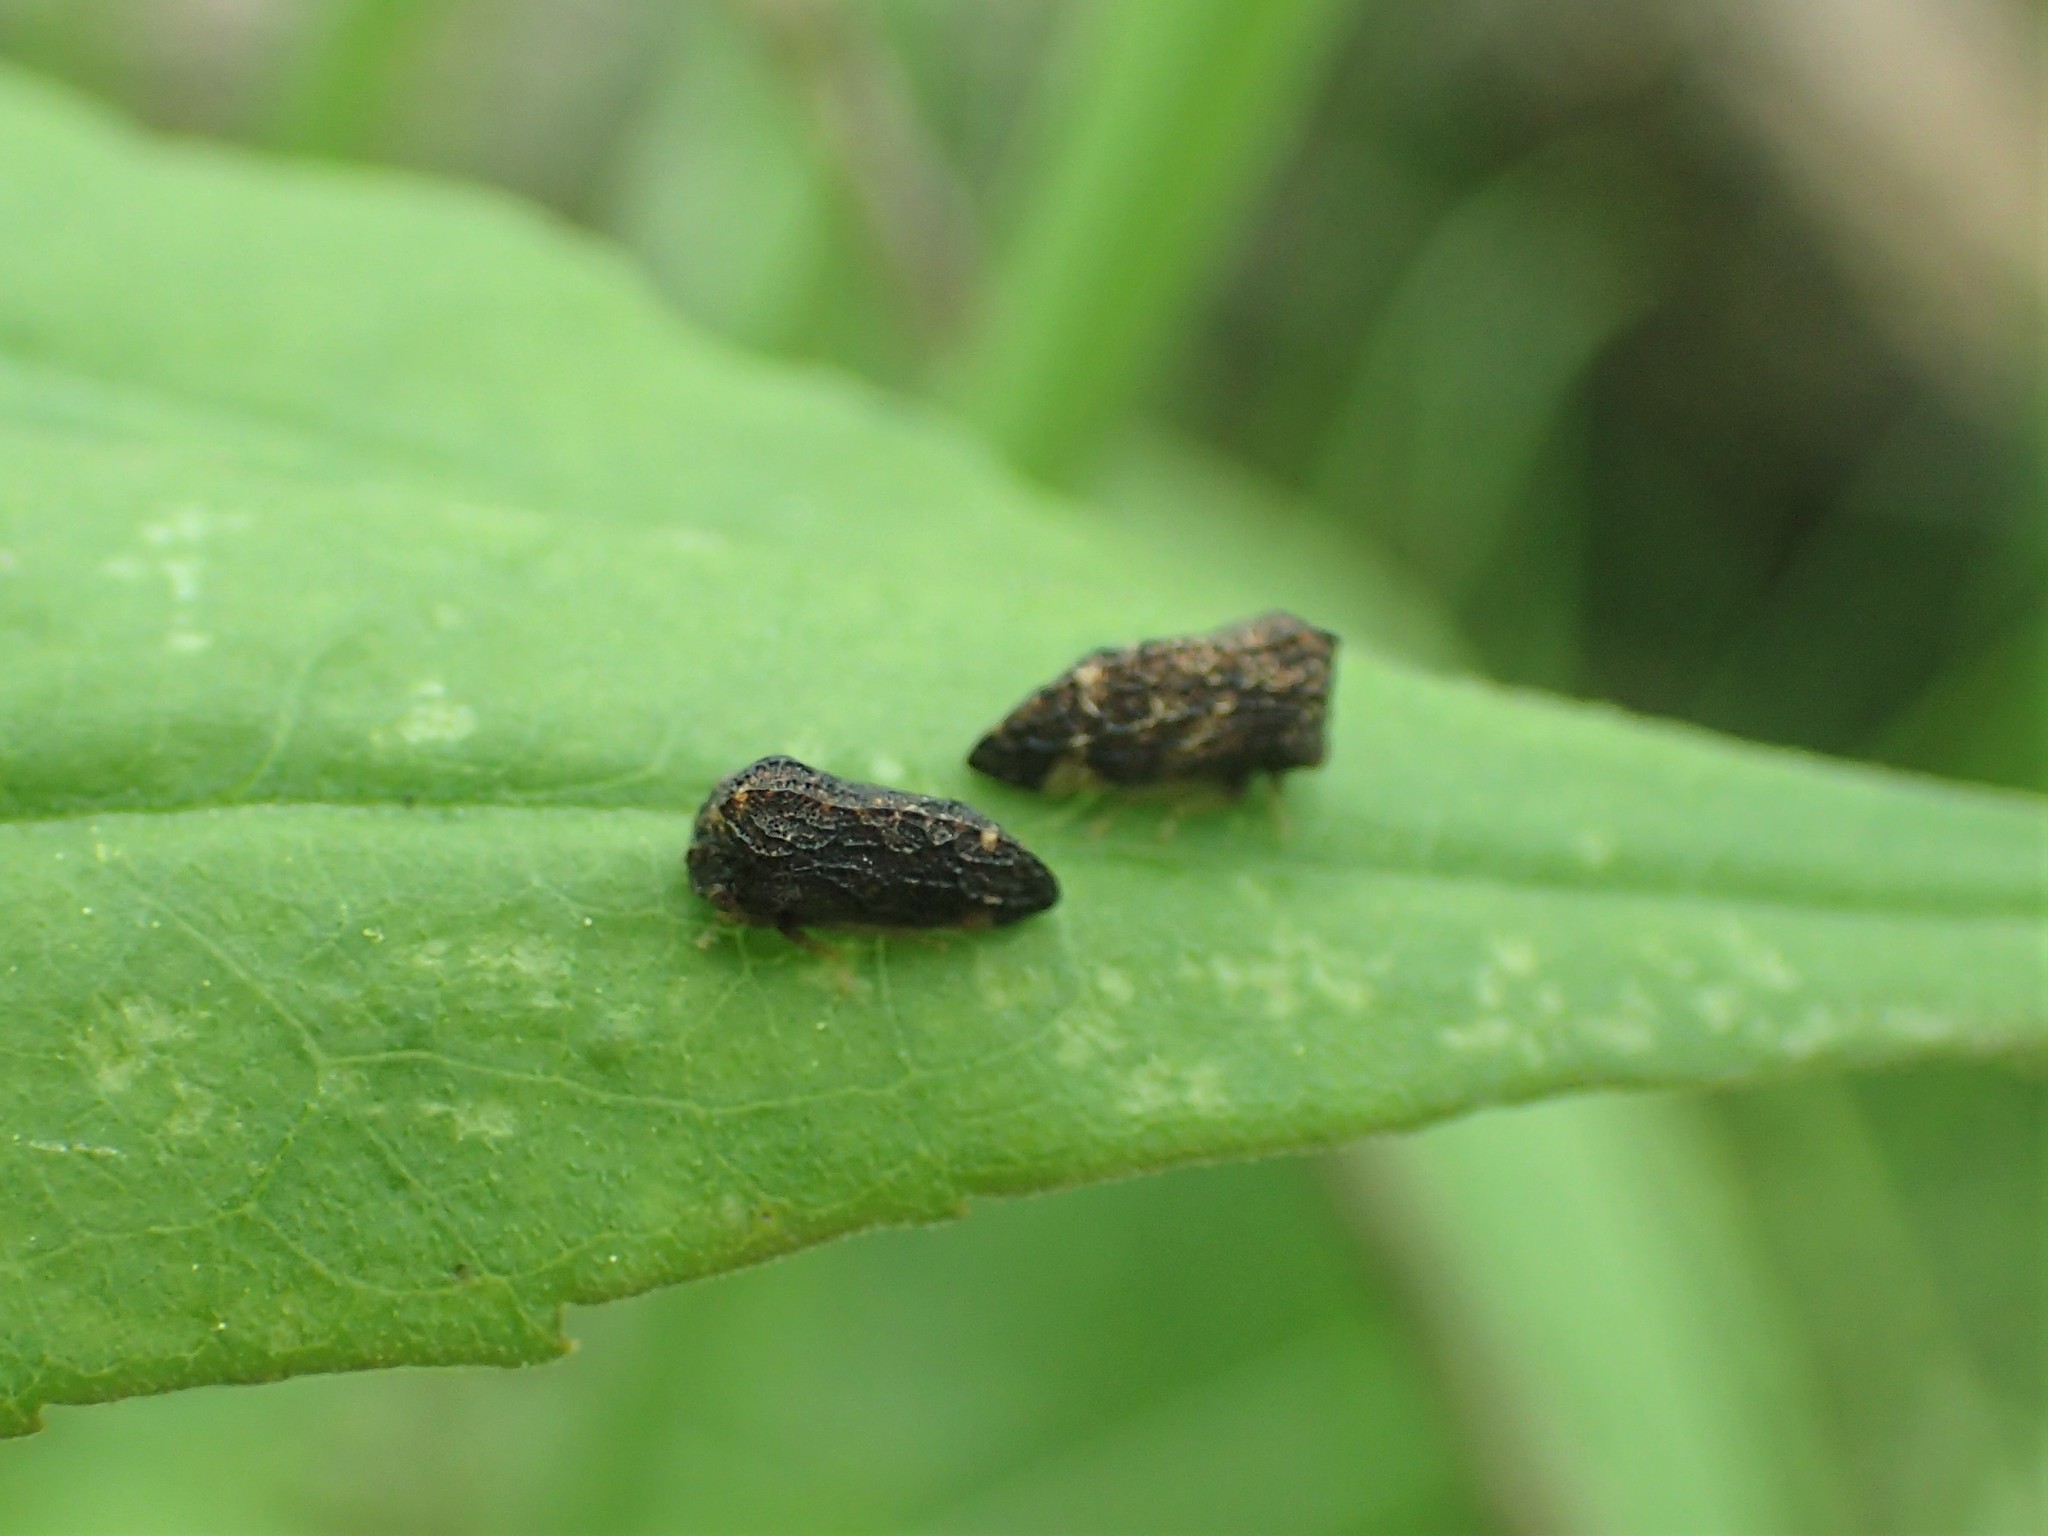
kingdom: Animalia
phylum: Arthropoda
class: Insecta
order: Hemiptera
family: Membracidae
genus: Publilia
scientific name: Publilia reticulata
